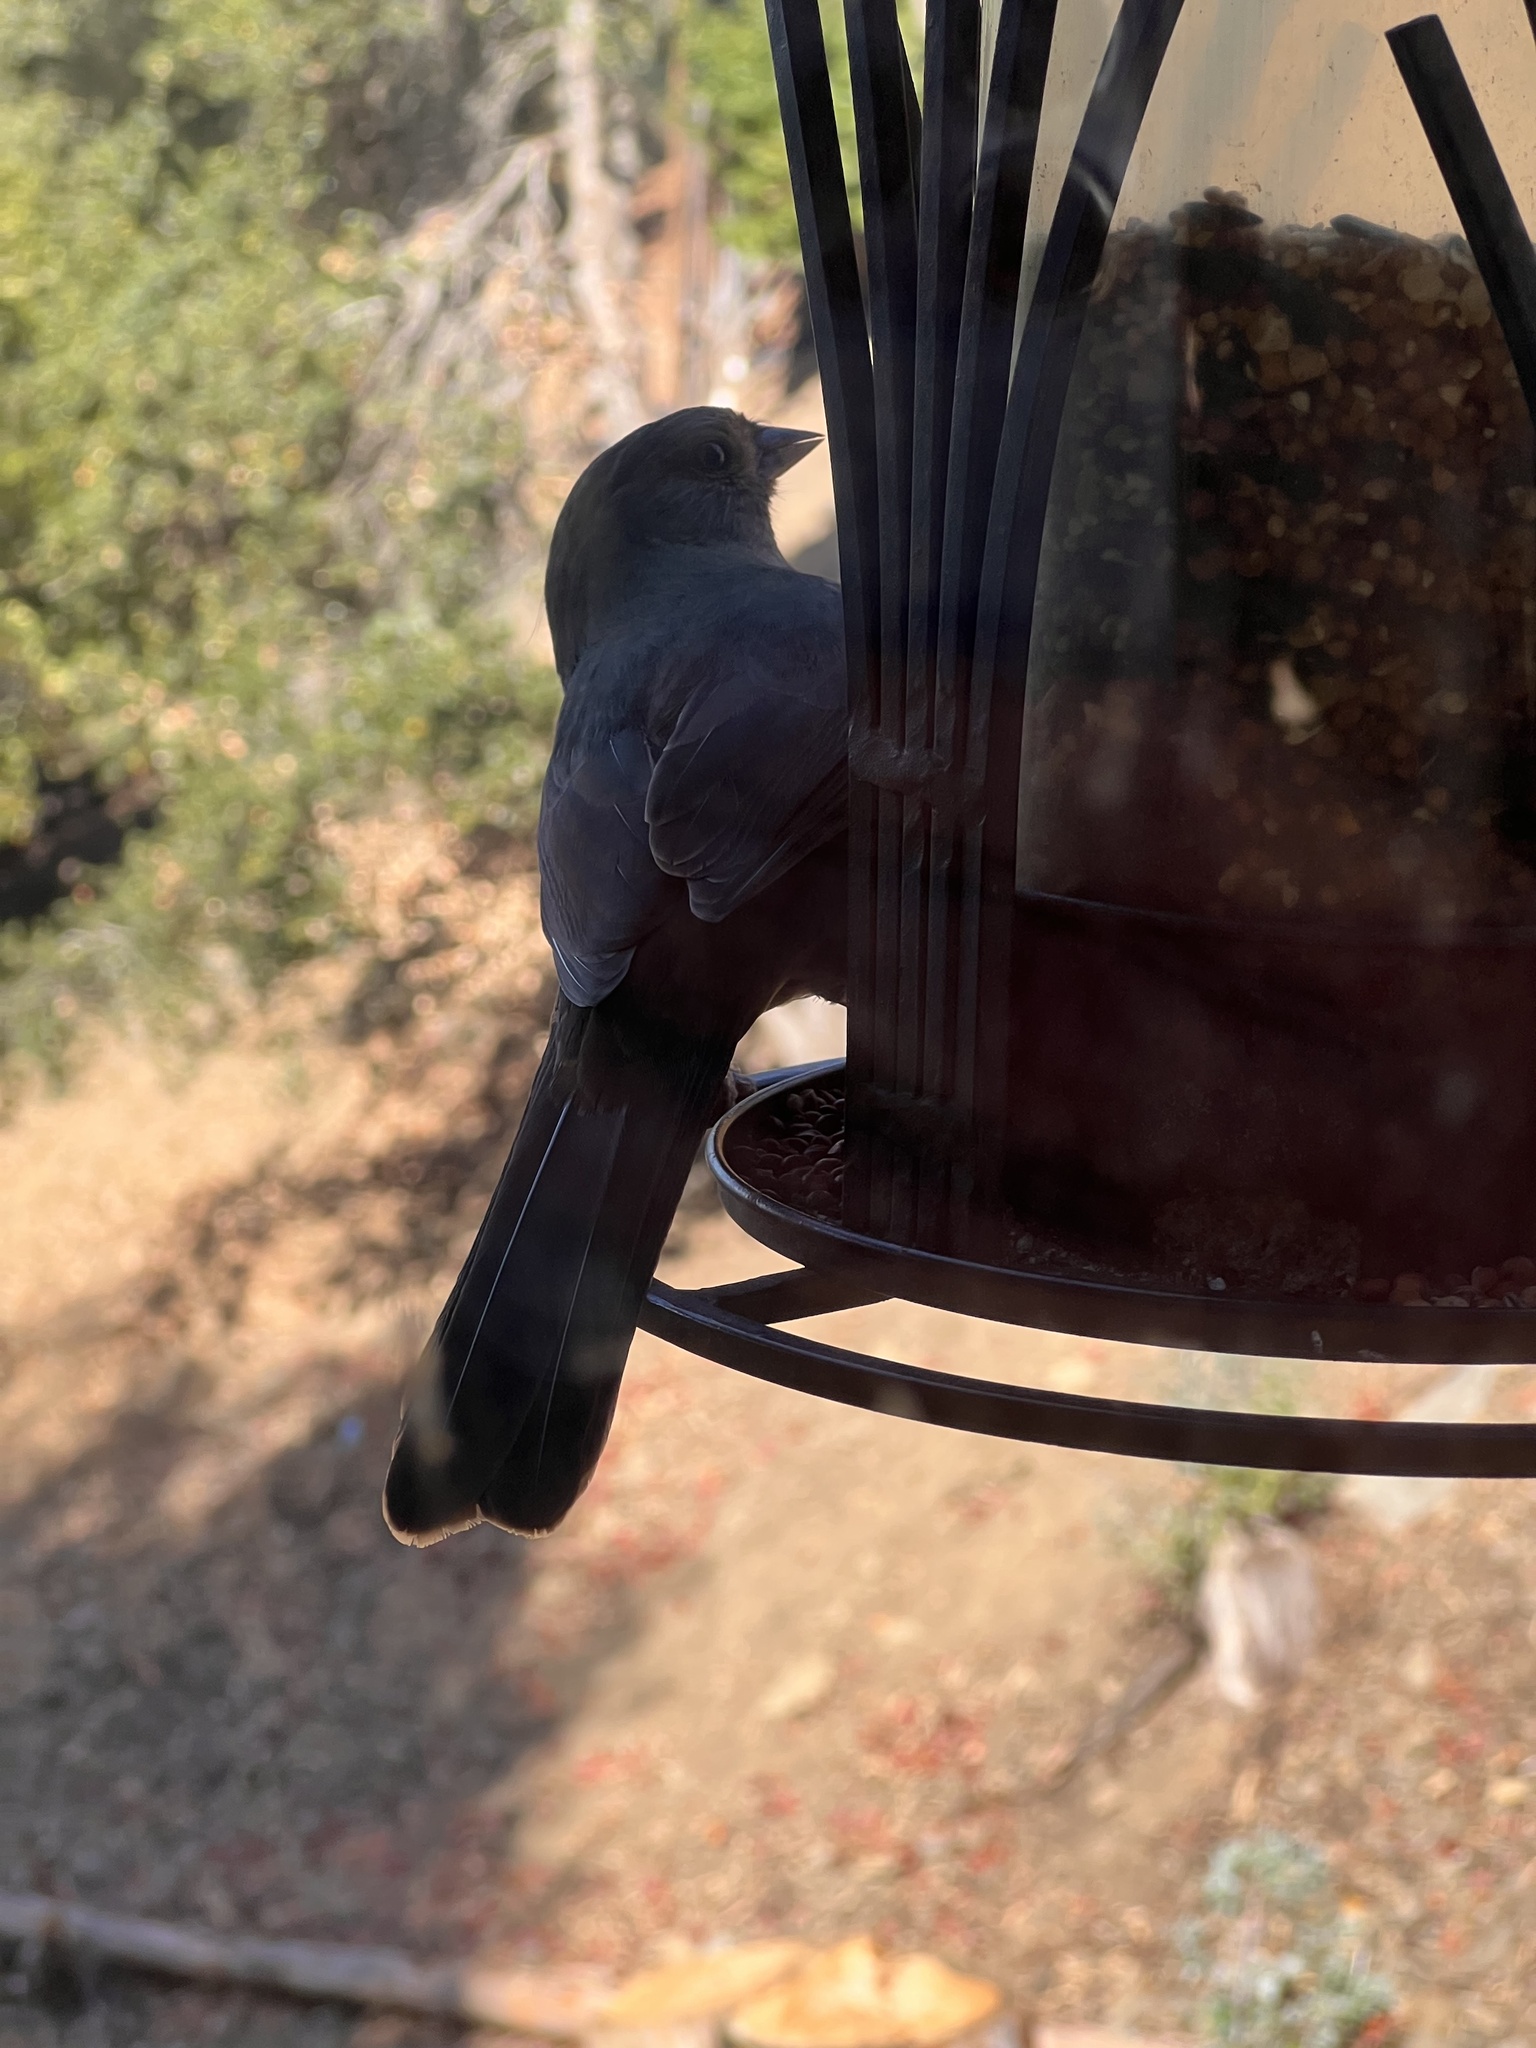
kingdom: Animalia
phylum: Chordata
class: Aves
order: Passeriformes
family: Passerellidae
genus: Melozone
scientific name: Melozone crissalis
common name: California towhee
